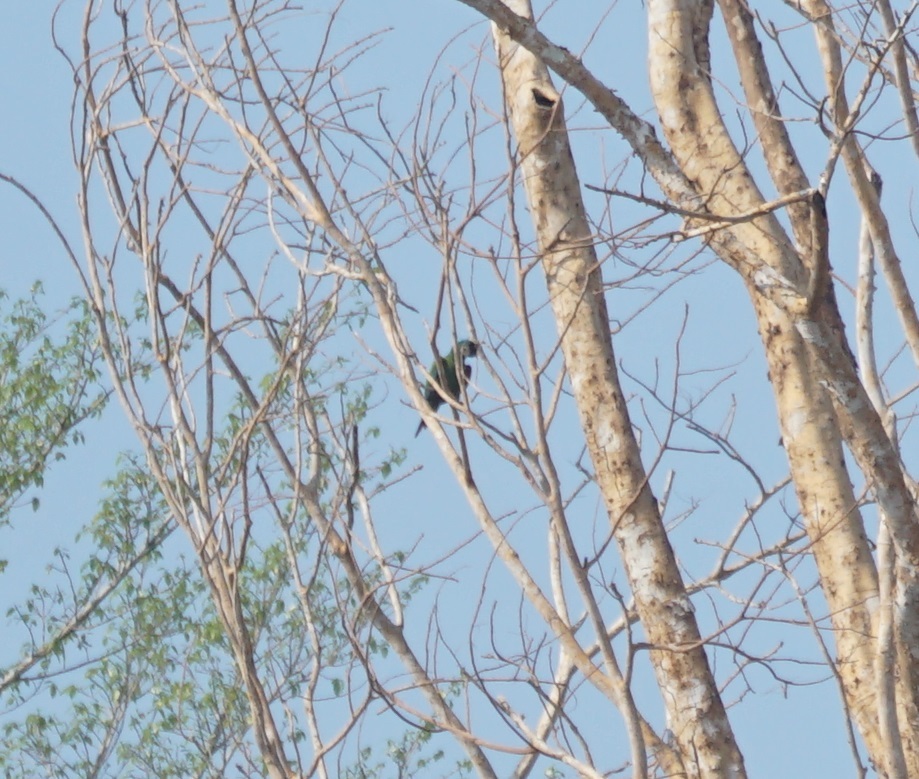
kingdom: Animalia
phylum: Chordata
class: Aves
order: Psittaciformes
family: Psittacidae
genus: Ara
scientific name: Ara severus
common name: Chestnut-fronted macaw
